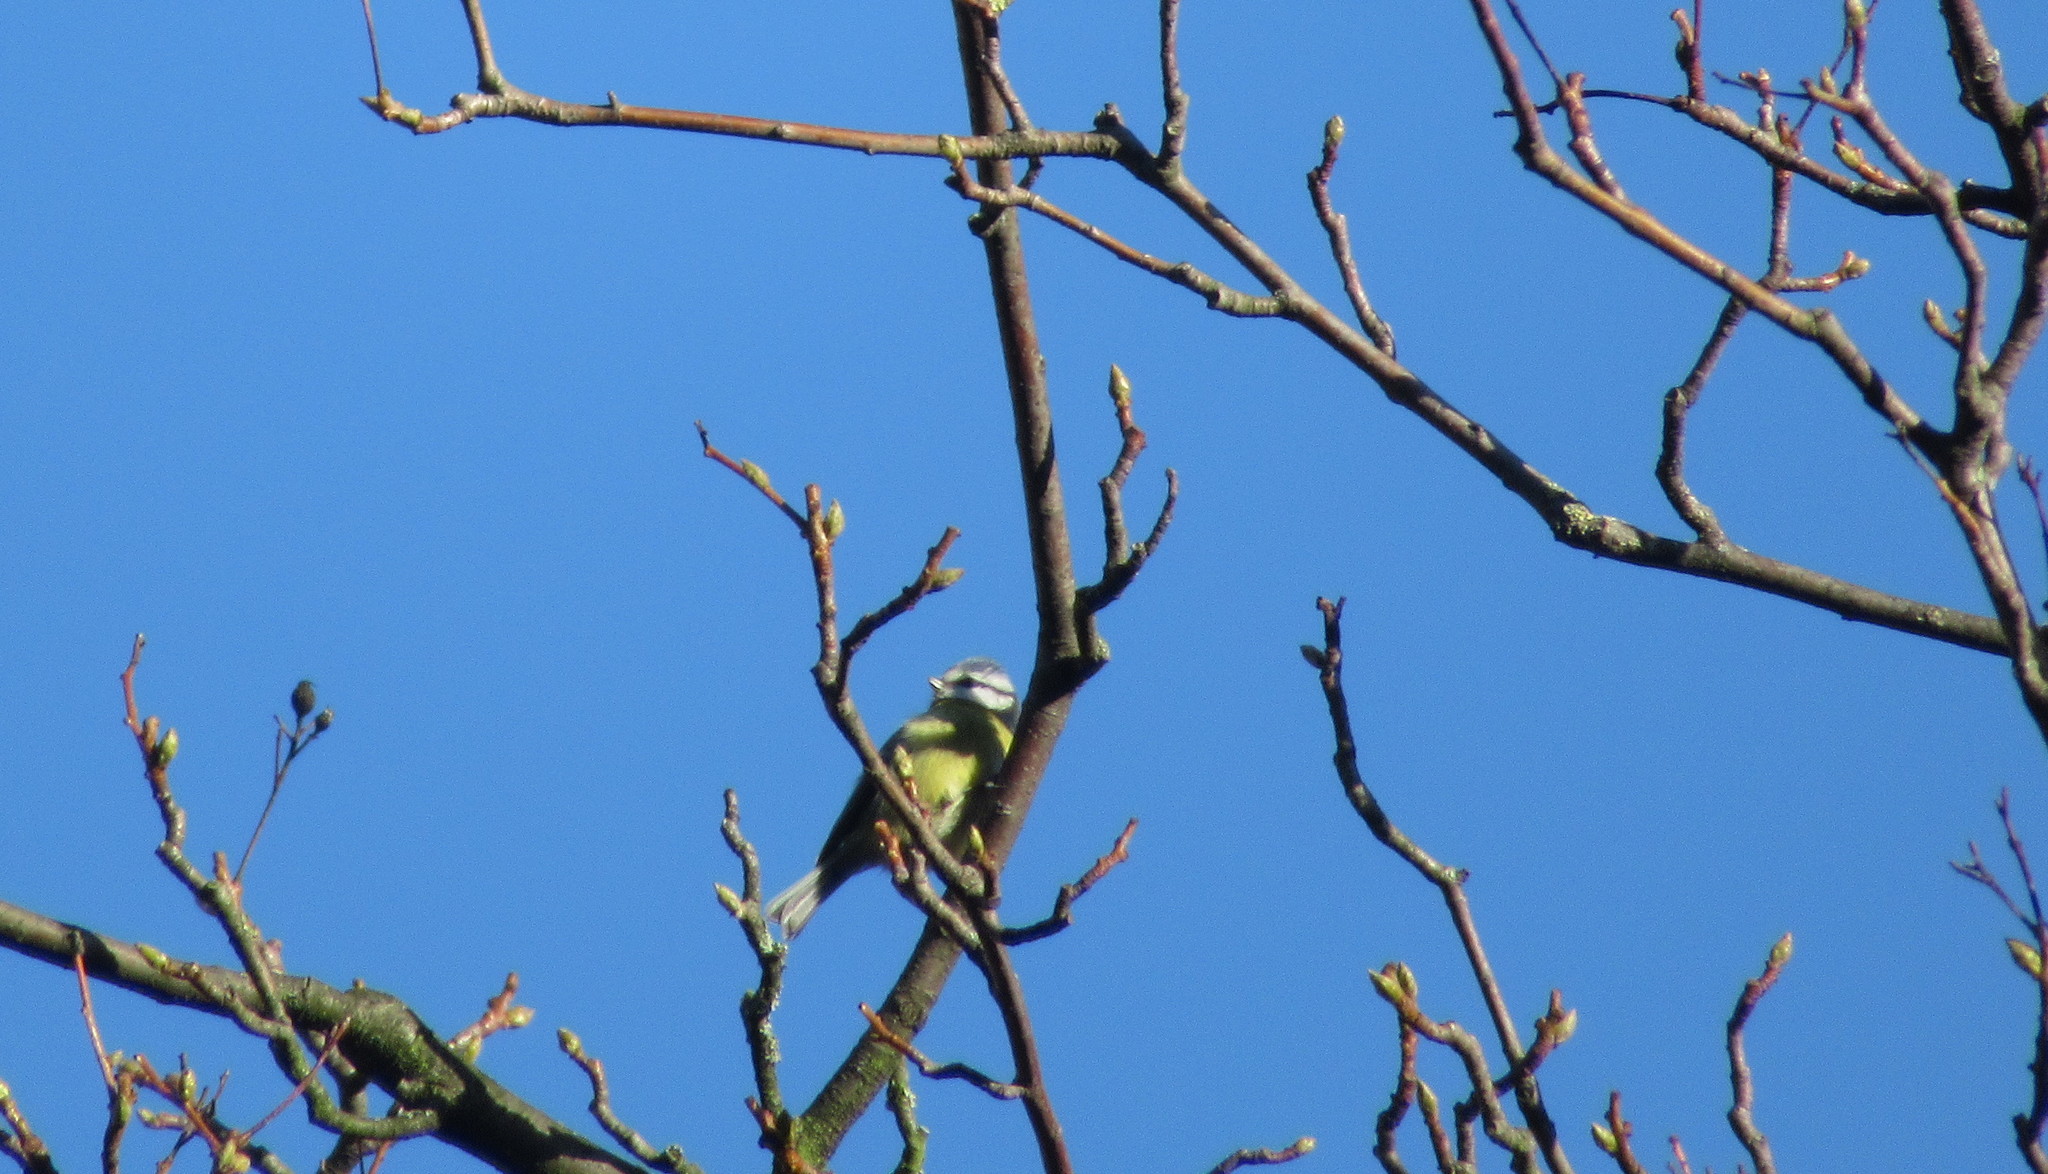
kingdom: Animalia
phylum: Chordata
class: Aves
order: Passeriformes
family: Paridae
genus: Cyanistes
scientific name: Cyanistes caeruleus
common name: Eurasian blue tit
